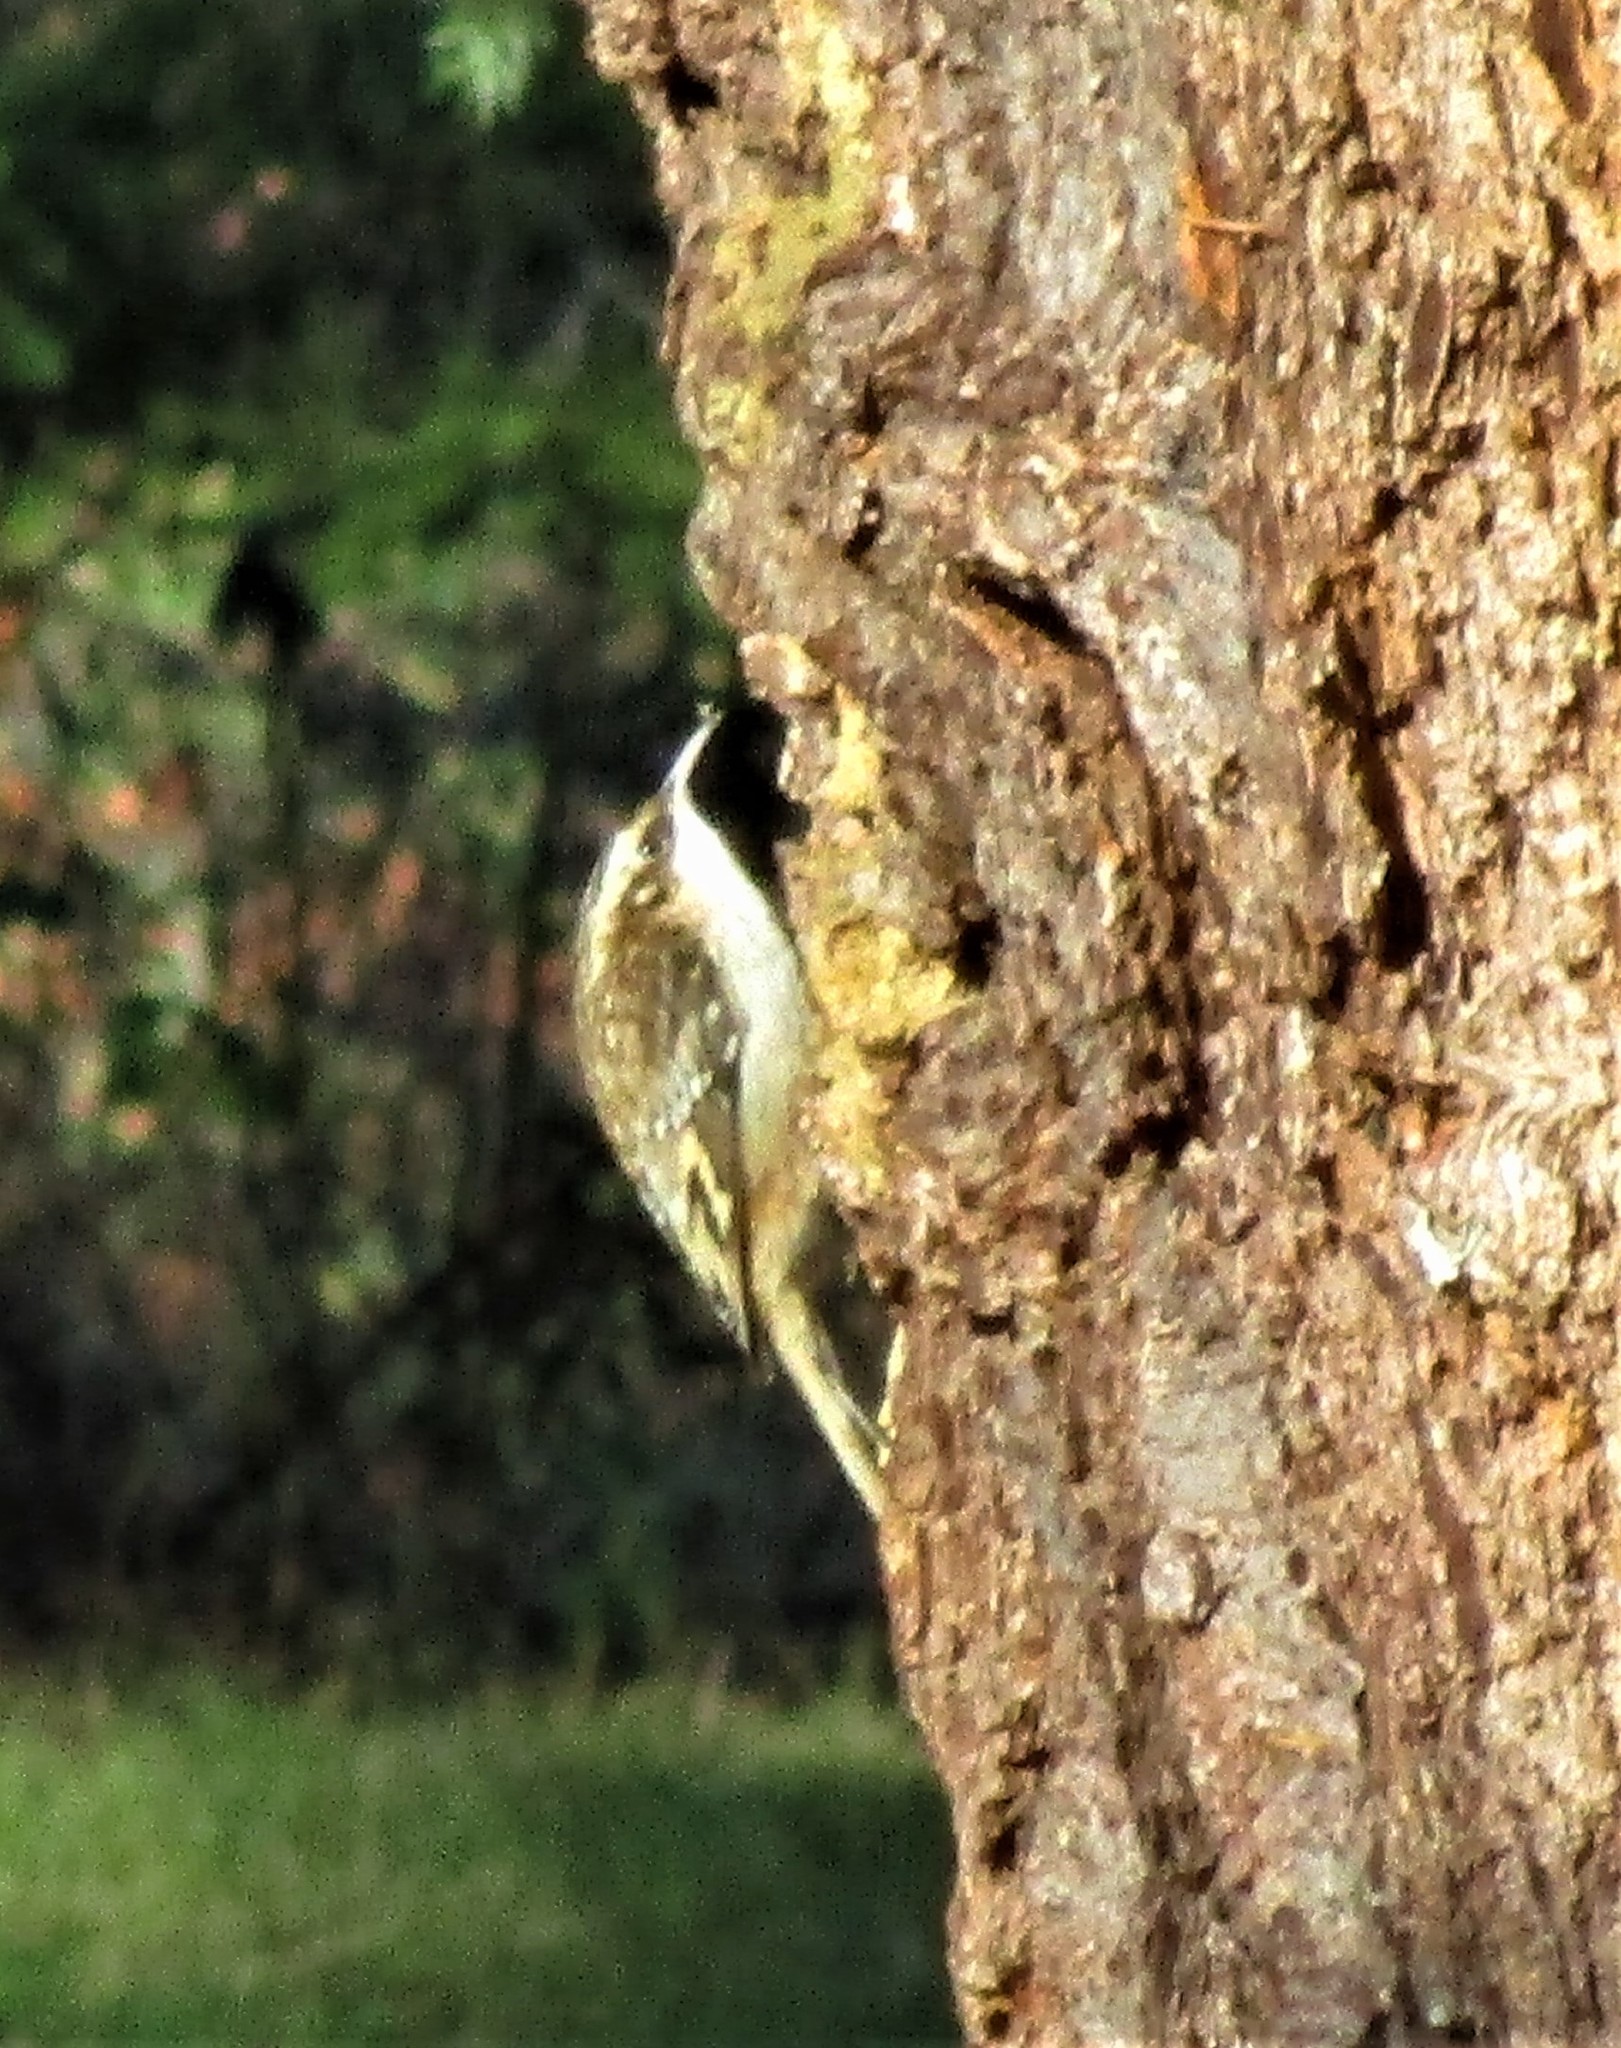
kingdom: Animalia
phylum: Chordata
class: Aves
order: Passeriformes
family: Certhiidae
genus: Certhia
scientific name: Certhia americana
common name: Brown creeper
